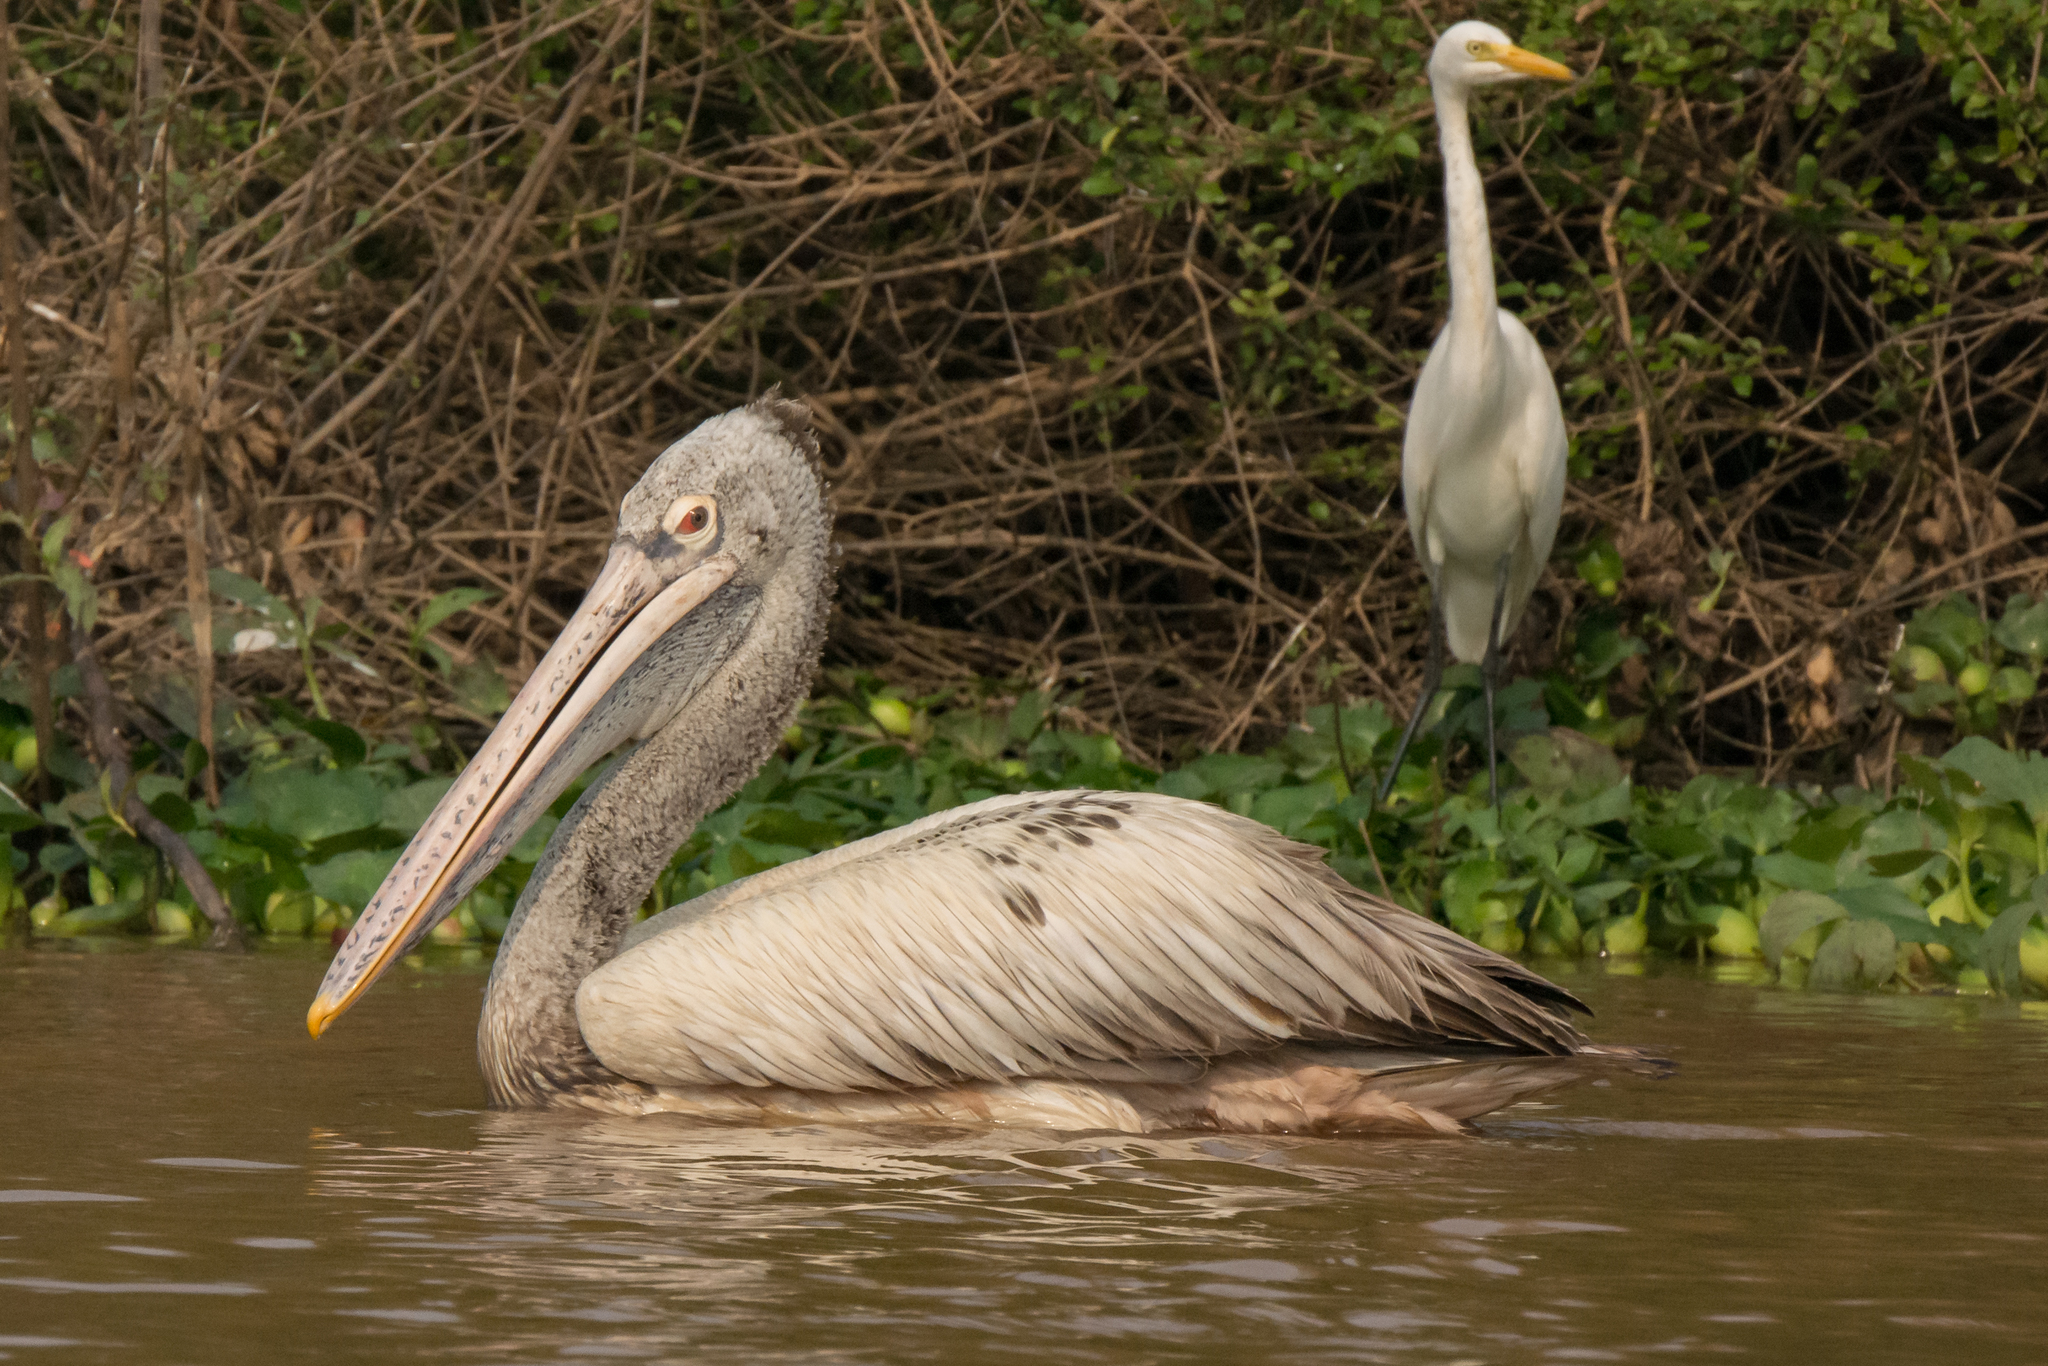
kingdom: Animalia
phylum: Chordata
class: Aves
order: Pelecaniformes
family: Pelecanidae
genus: Pelecanus
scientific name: Pelecanus philippensis
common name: Spot-billed pelican
